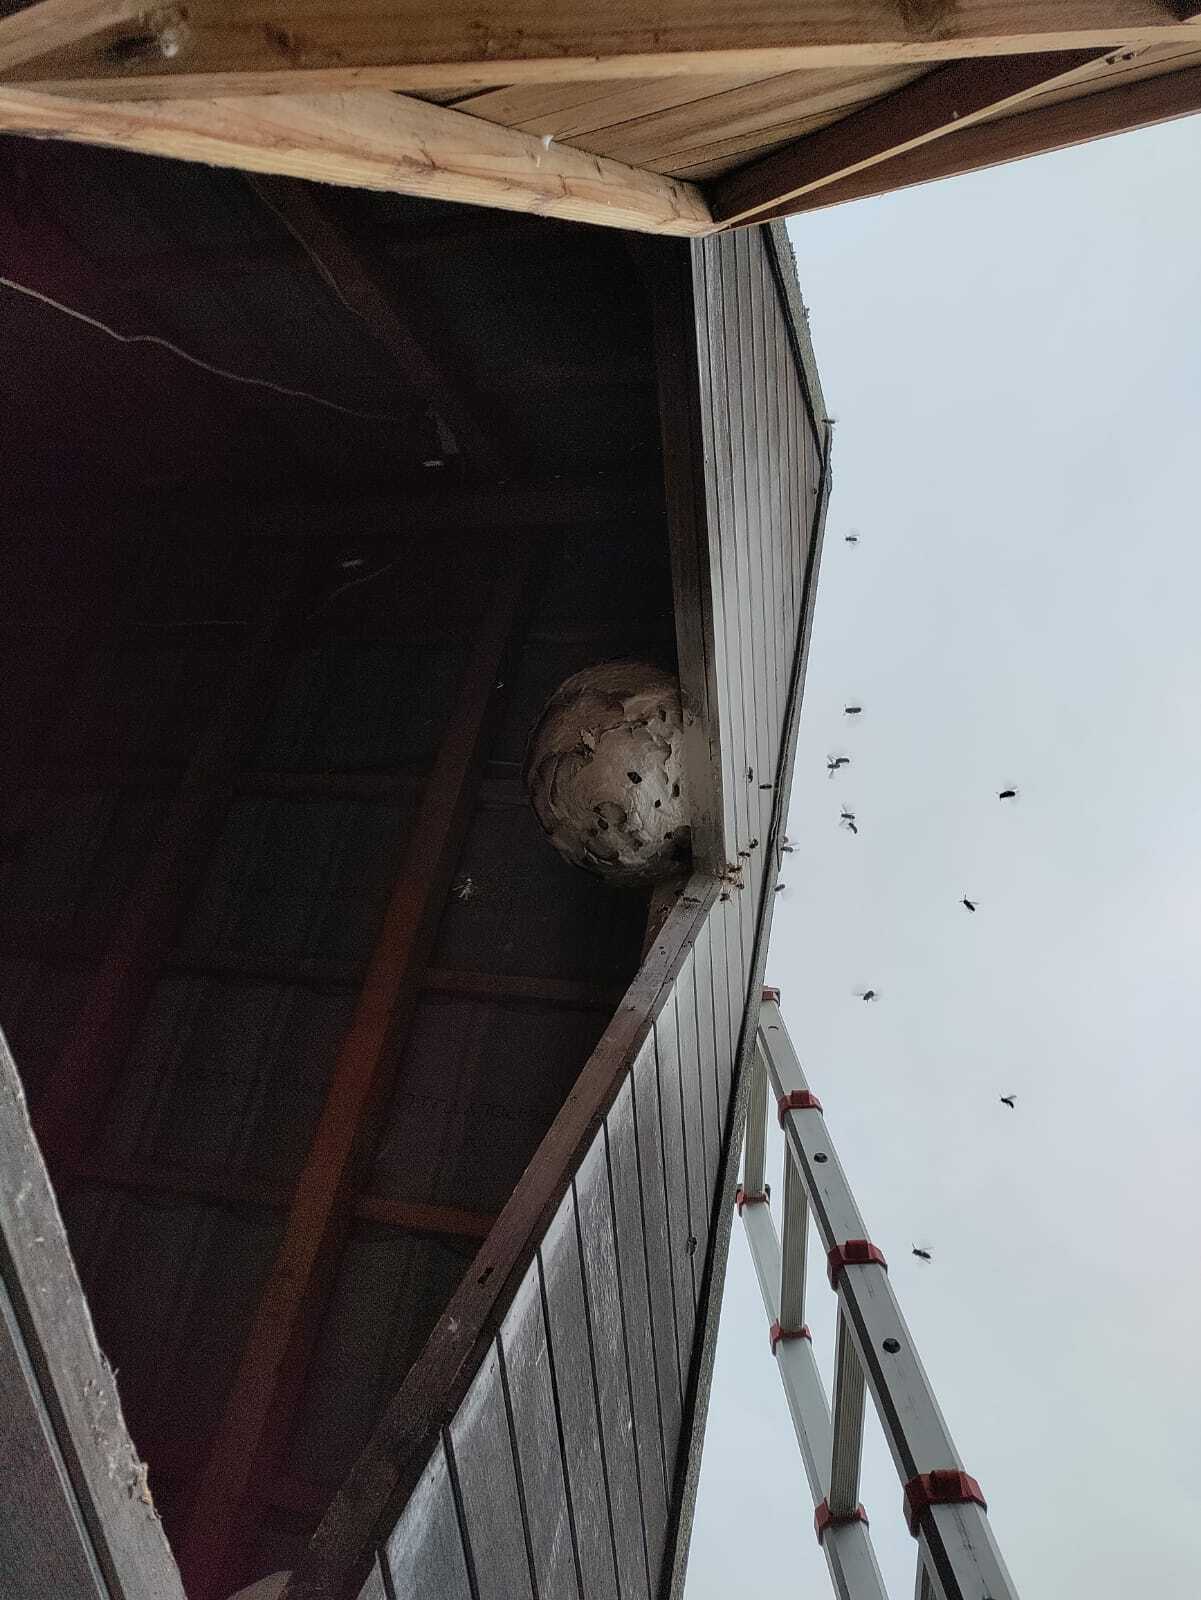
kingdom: Animalia
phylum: Arthropoda
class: Insecta
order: Hymenoptera
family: Vespidae
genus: Vespa
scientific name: Vespa velutina
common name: Asian hornet
